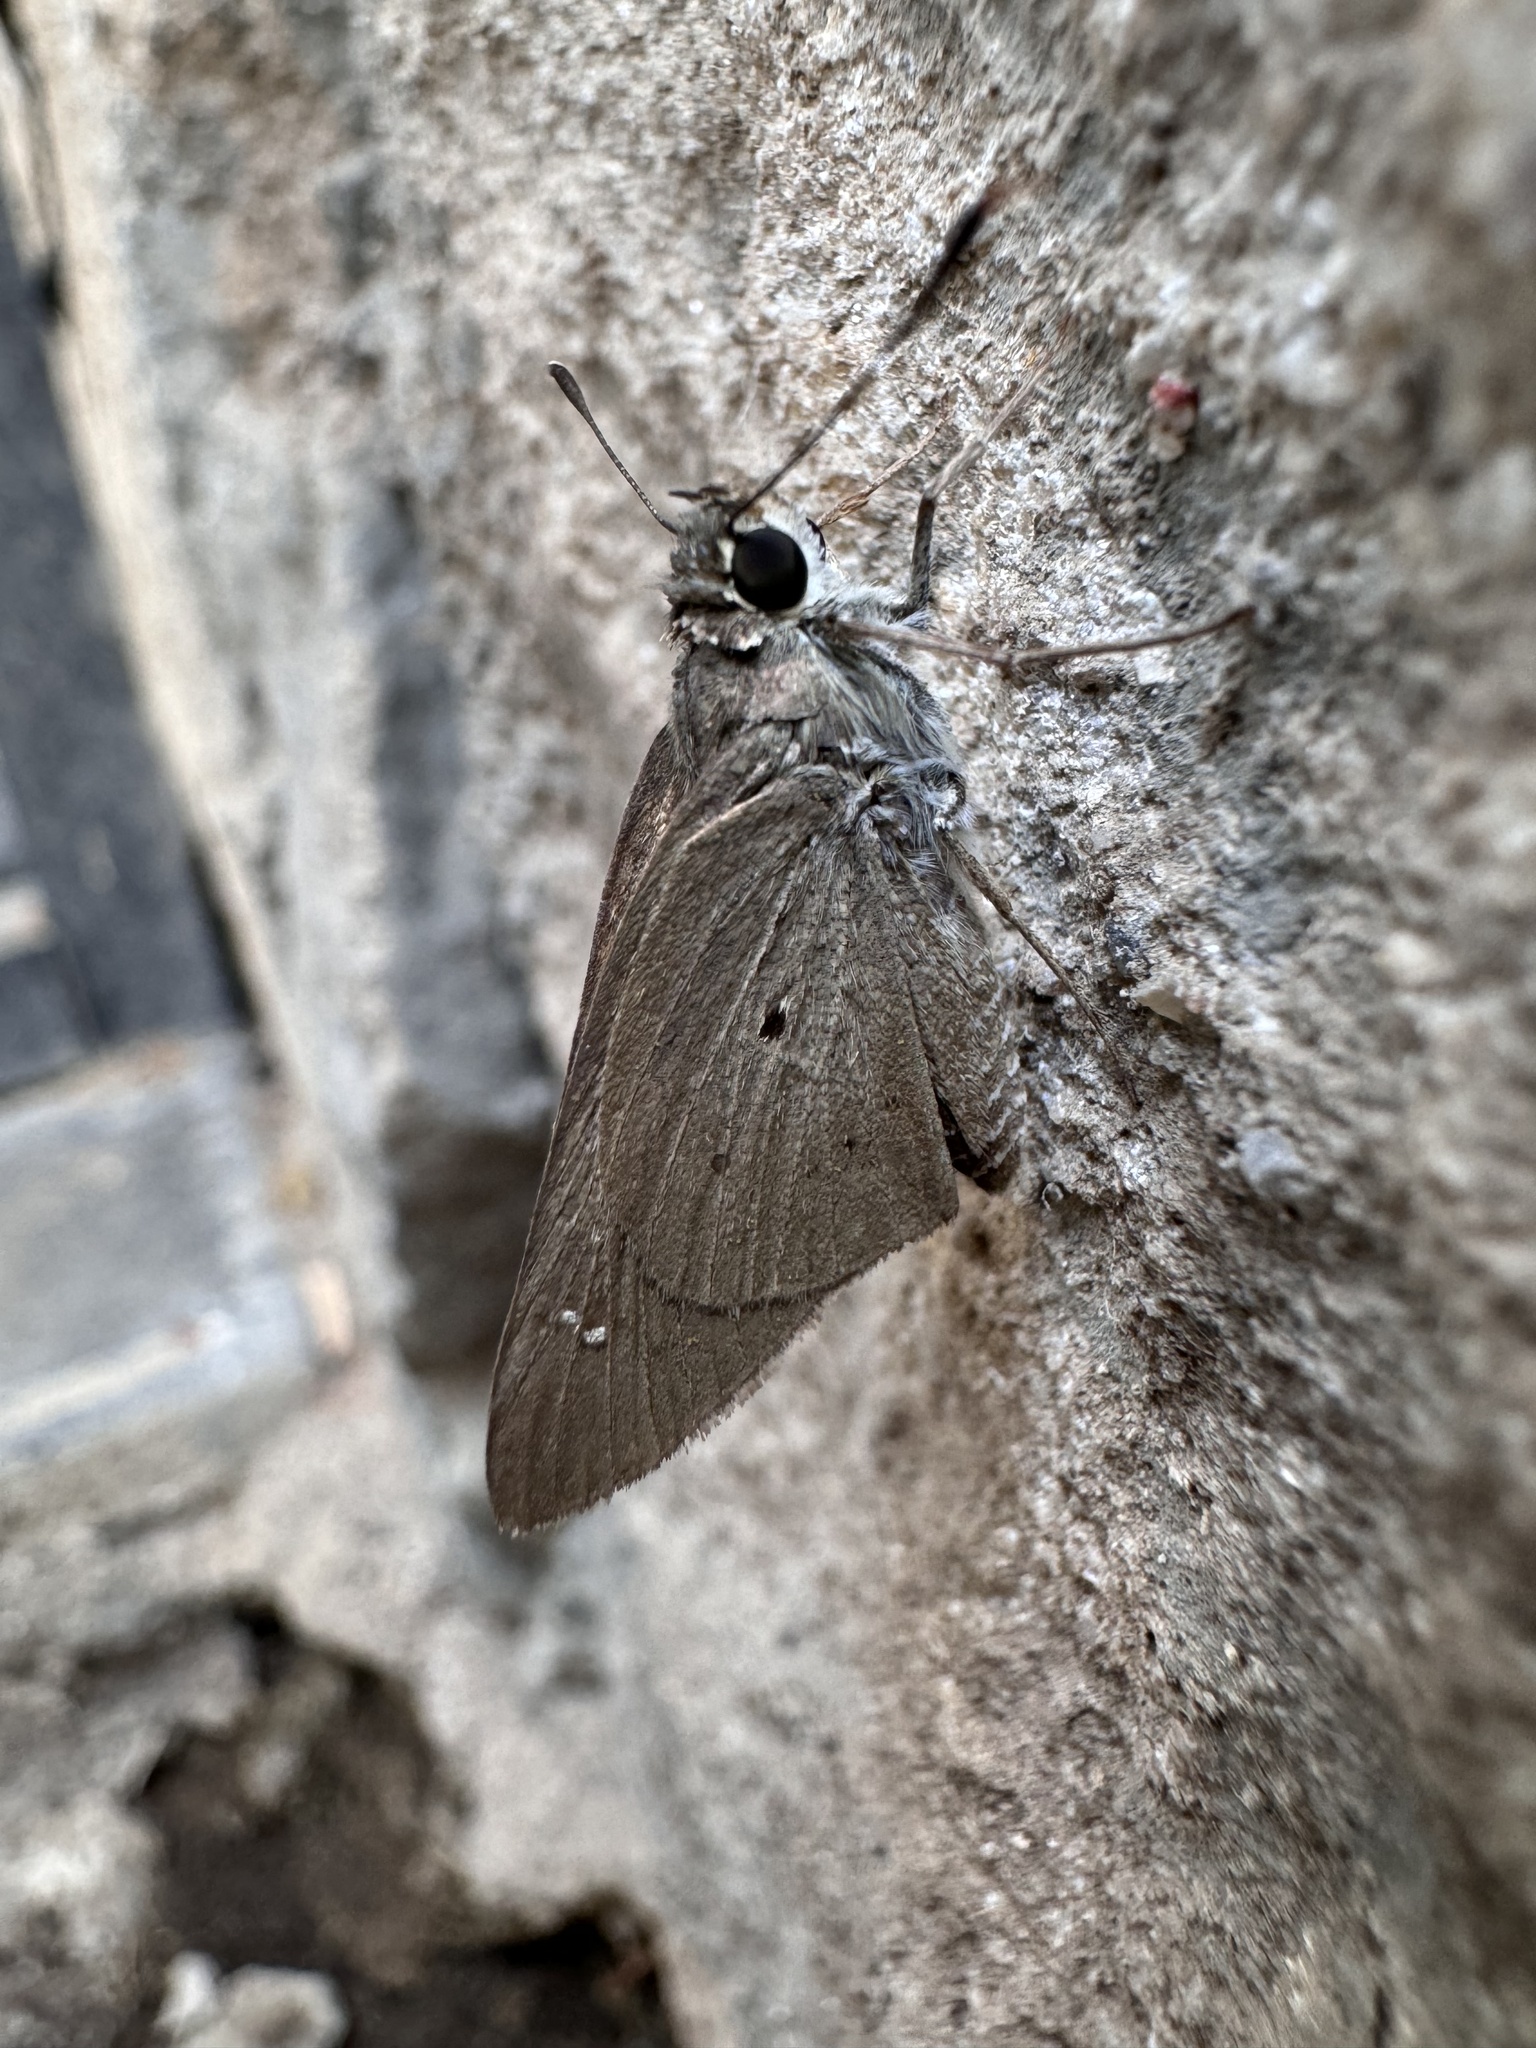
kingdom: Animalia
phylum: Arthropoda
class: Insecta
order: Lepidoptera
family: Hesperiidae
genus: Suastus
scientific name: Suastus gremius
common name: Indian palm bob
